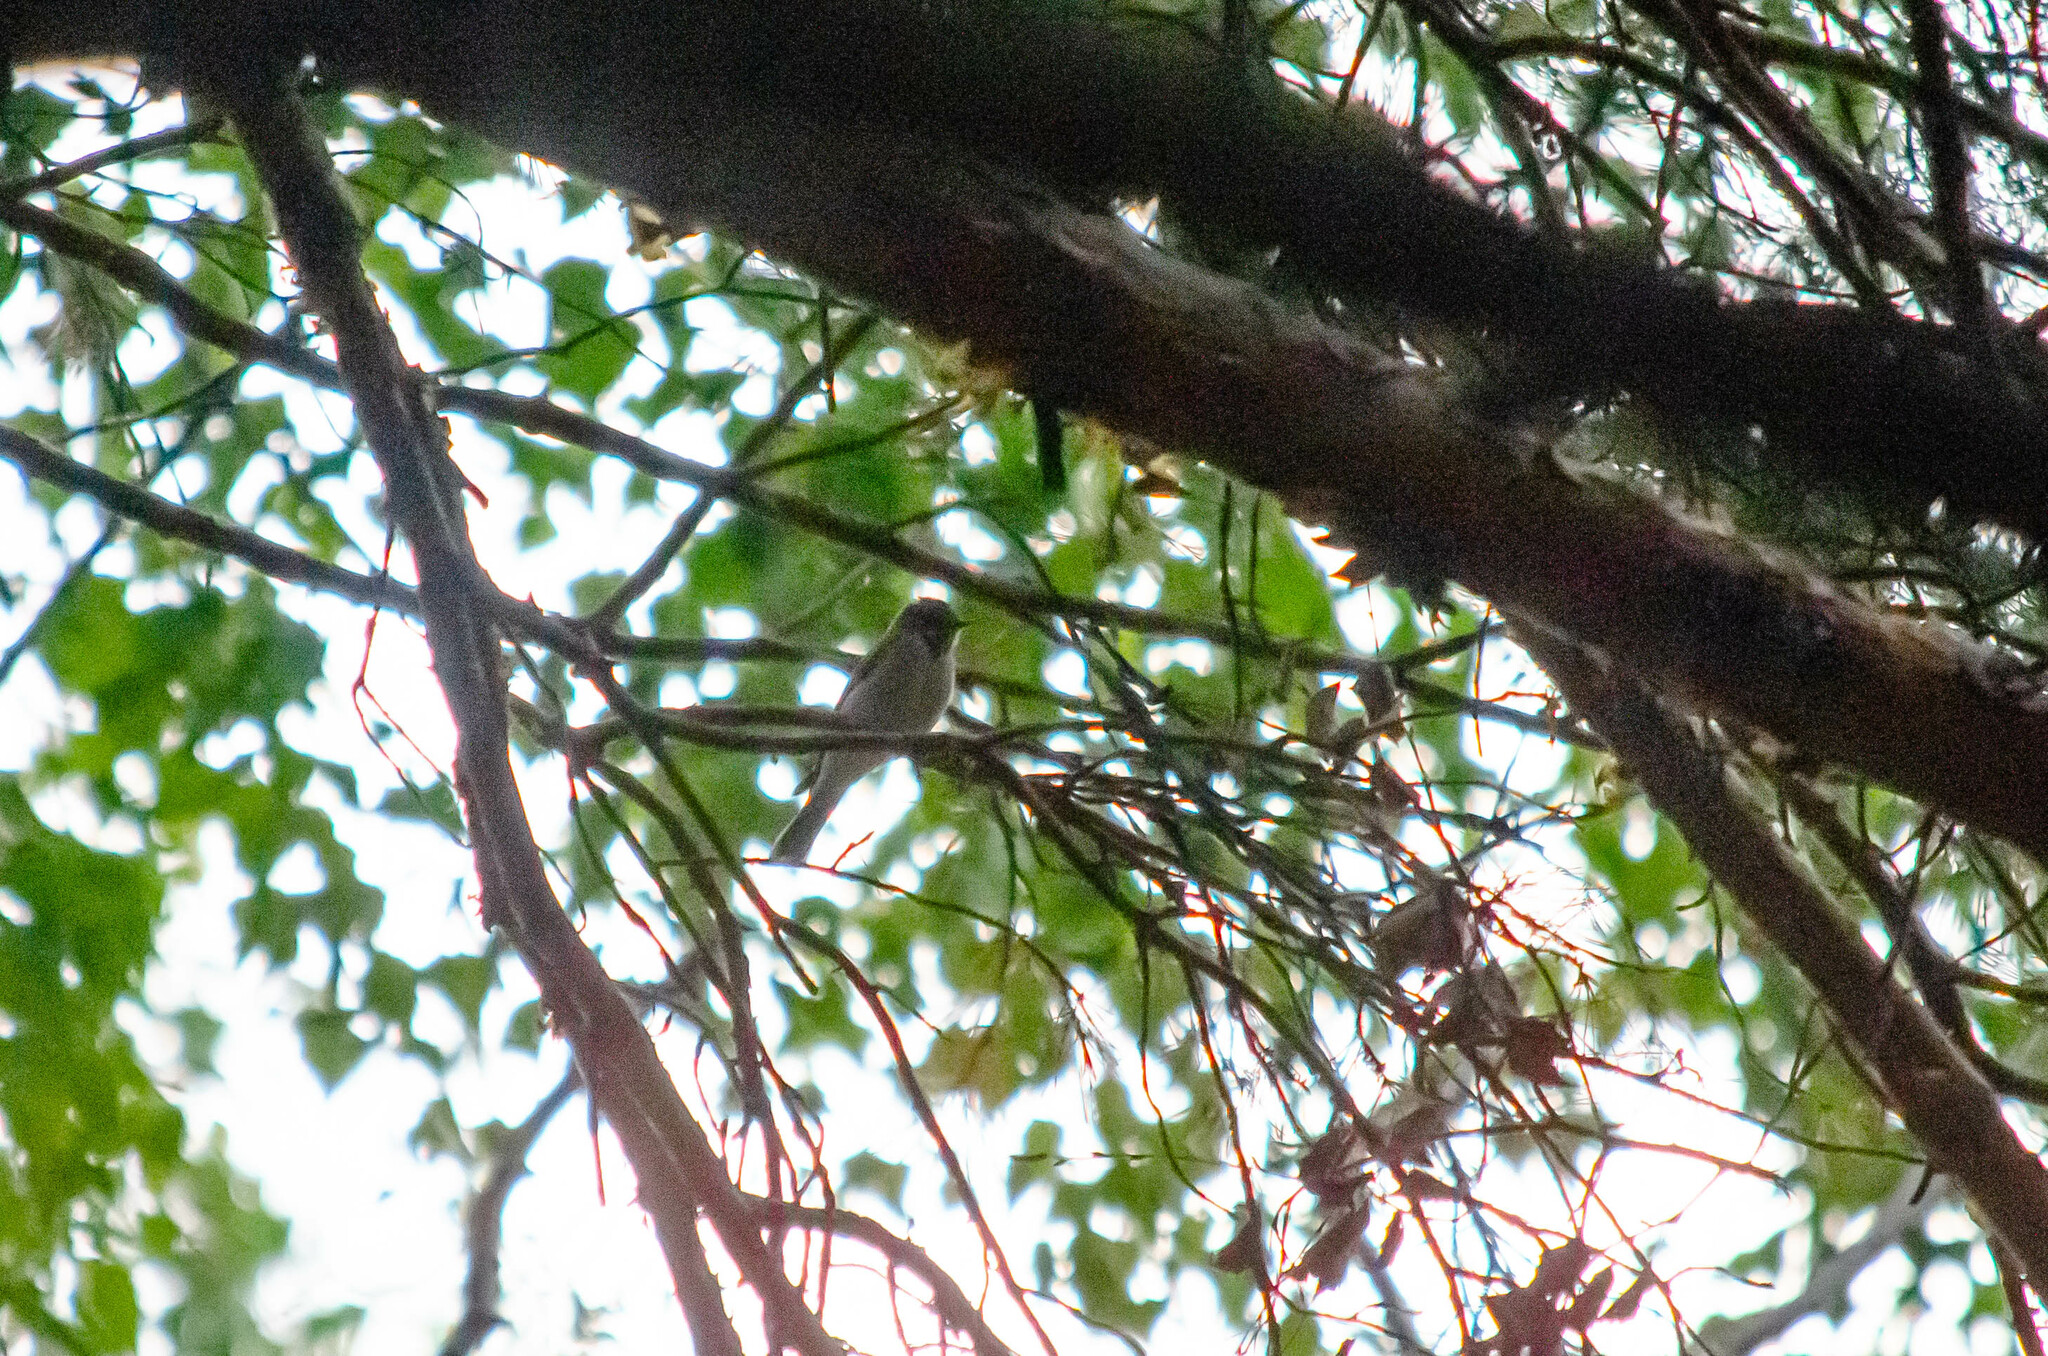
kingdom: Animalia
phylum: Chordata
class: Aves
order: Passeriformes
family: Muscicapidae
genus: Muscicapa
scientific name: Muscicapa striata
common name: Spotted flycatcher
